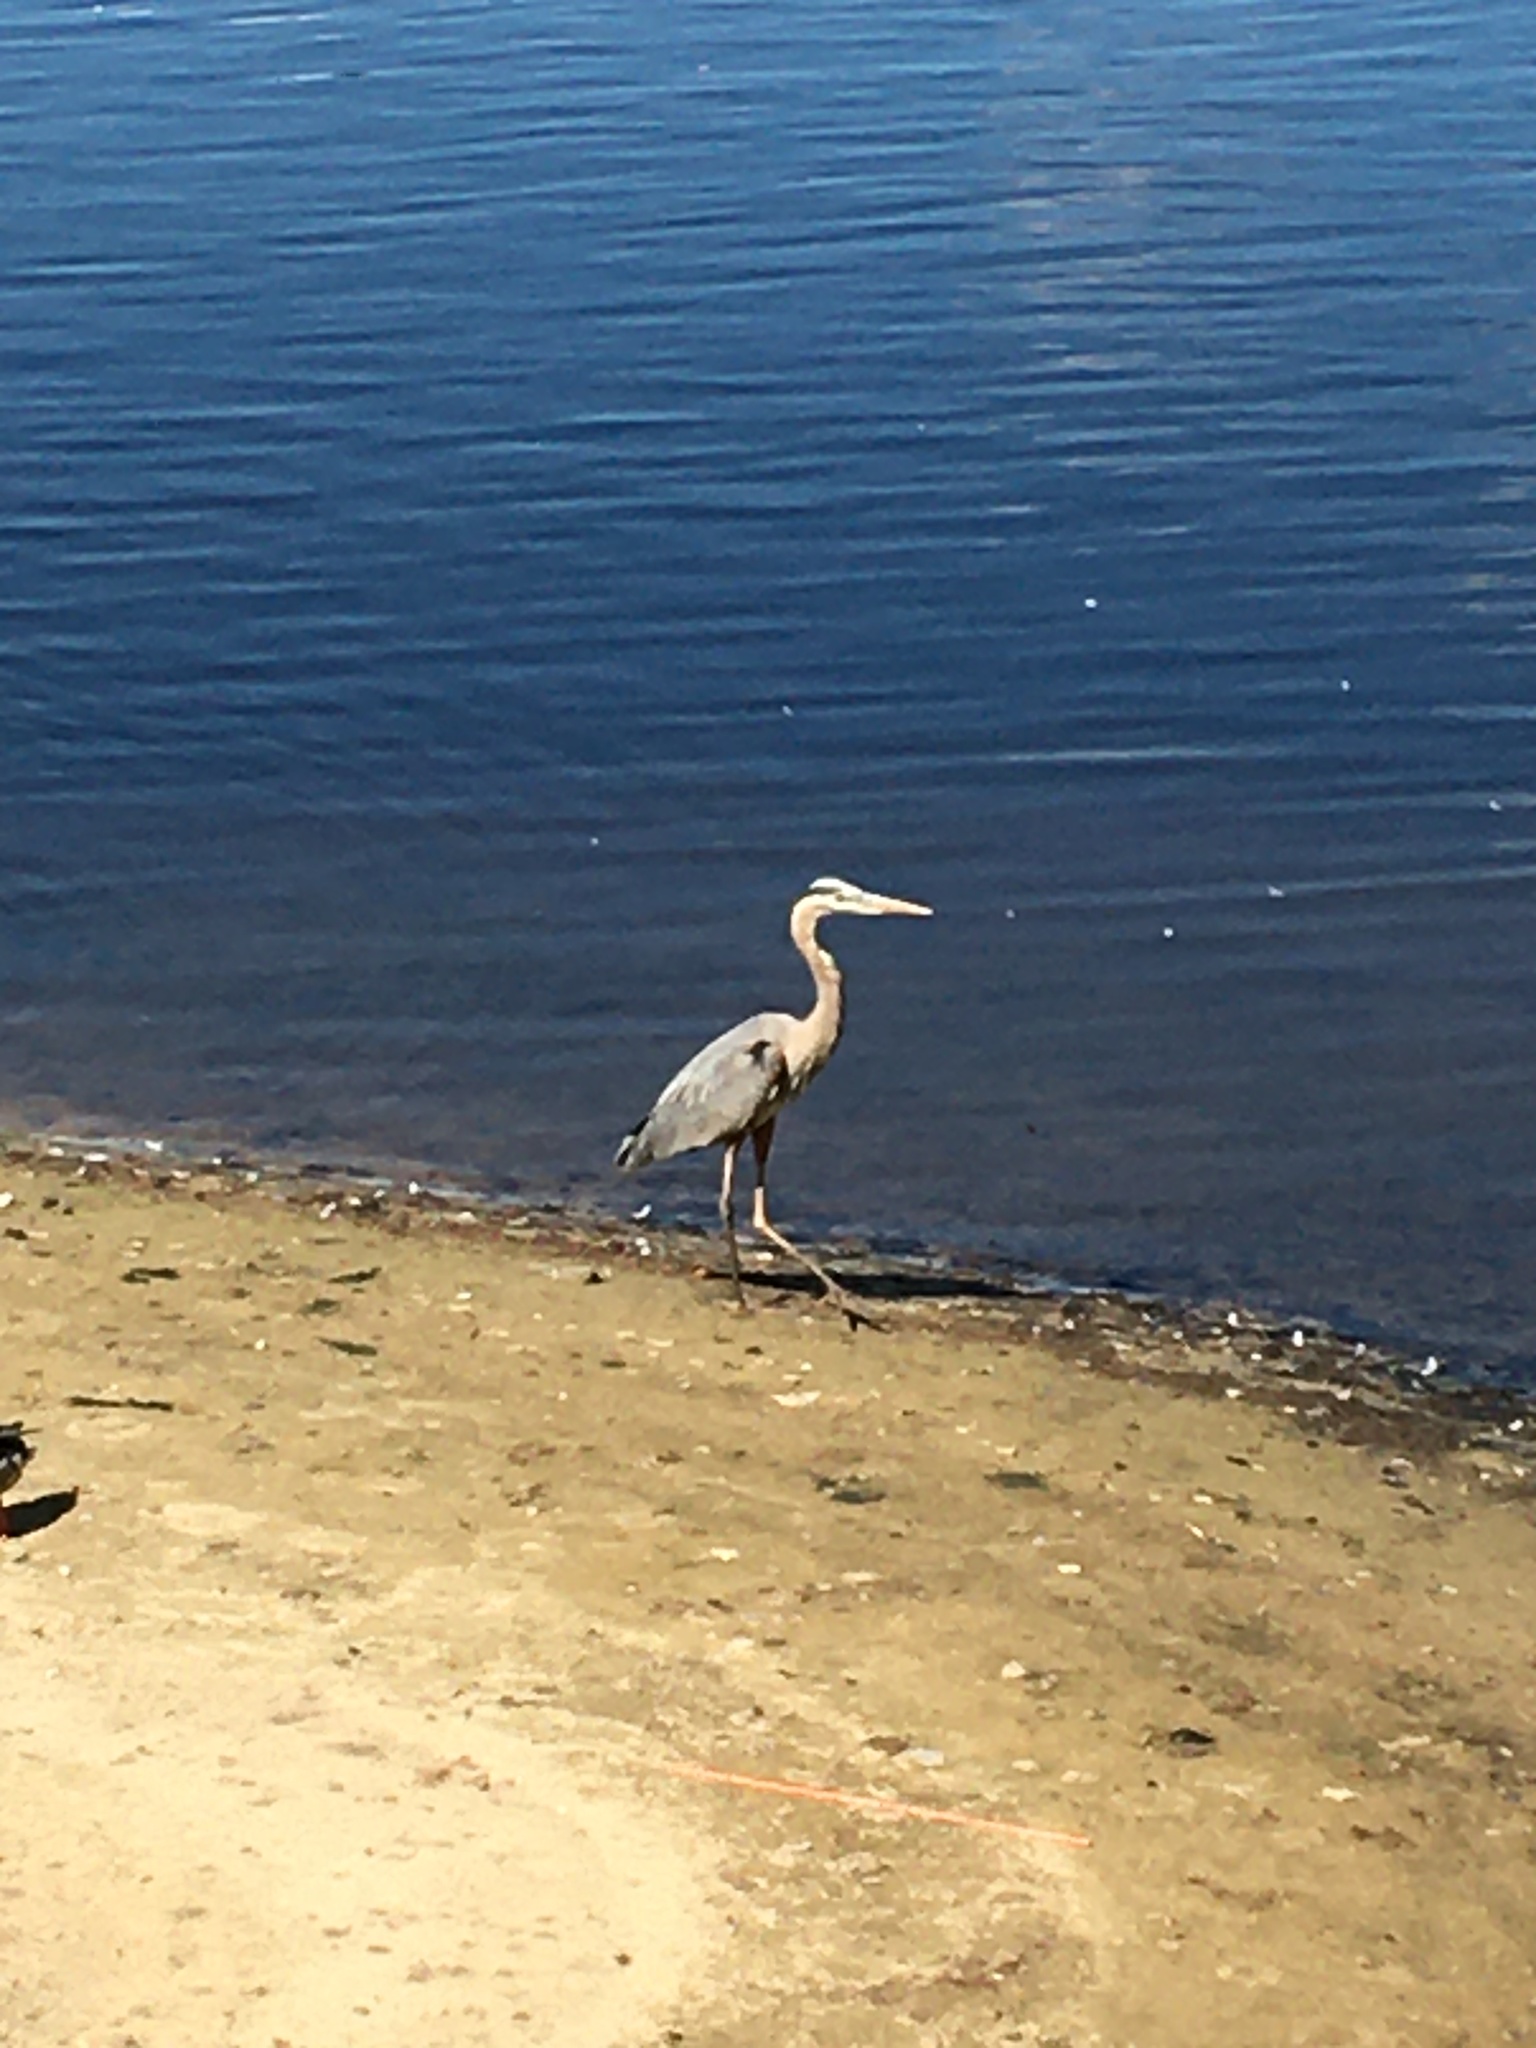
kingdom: Animalia
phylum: Chordata
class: Aves
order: Pelecaniformes
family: Ardeidae
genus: Ardea
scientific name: Ardea herodias
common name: Great blue heron
